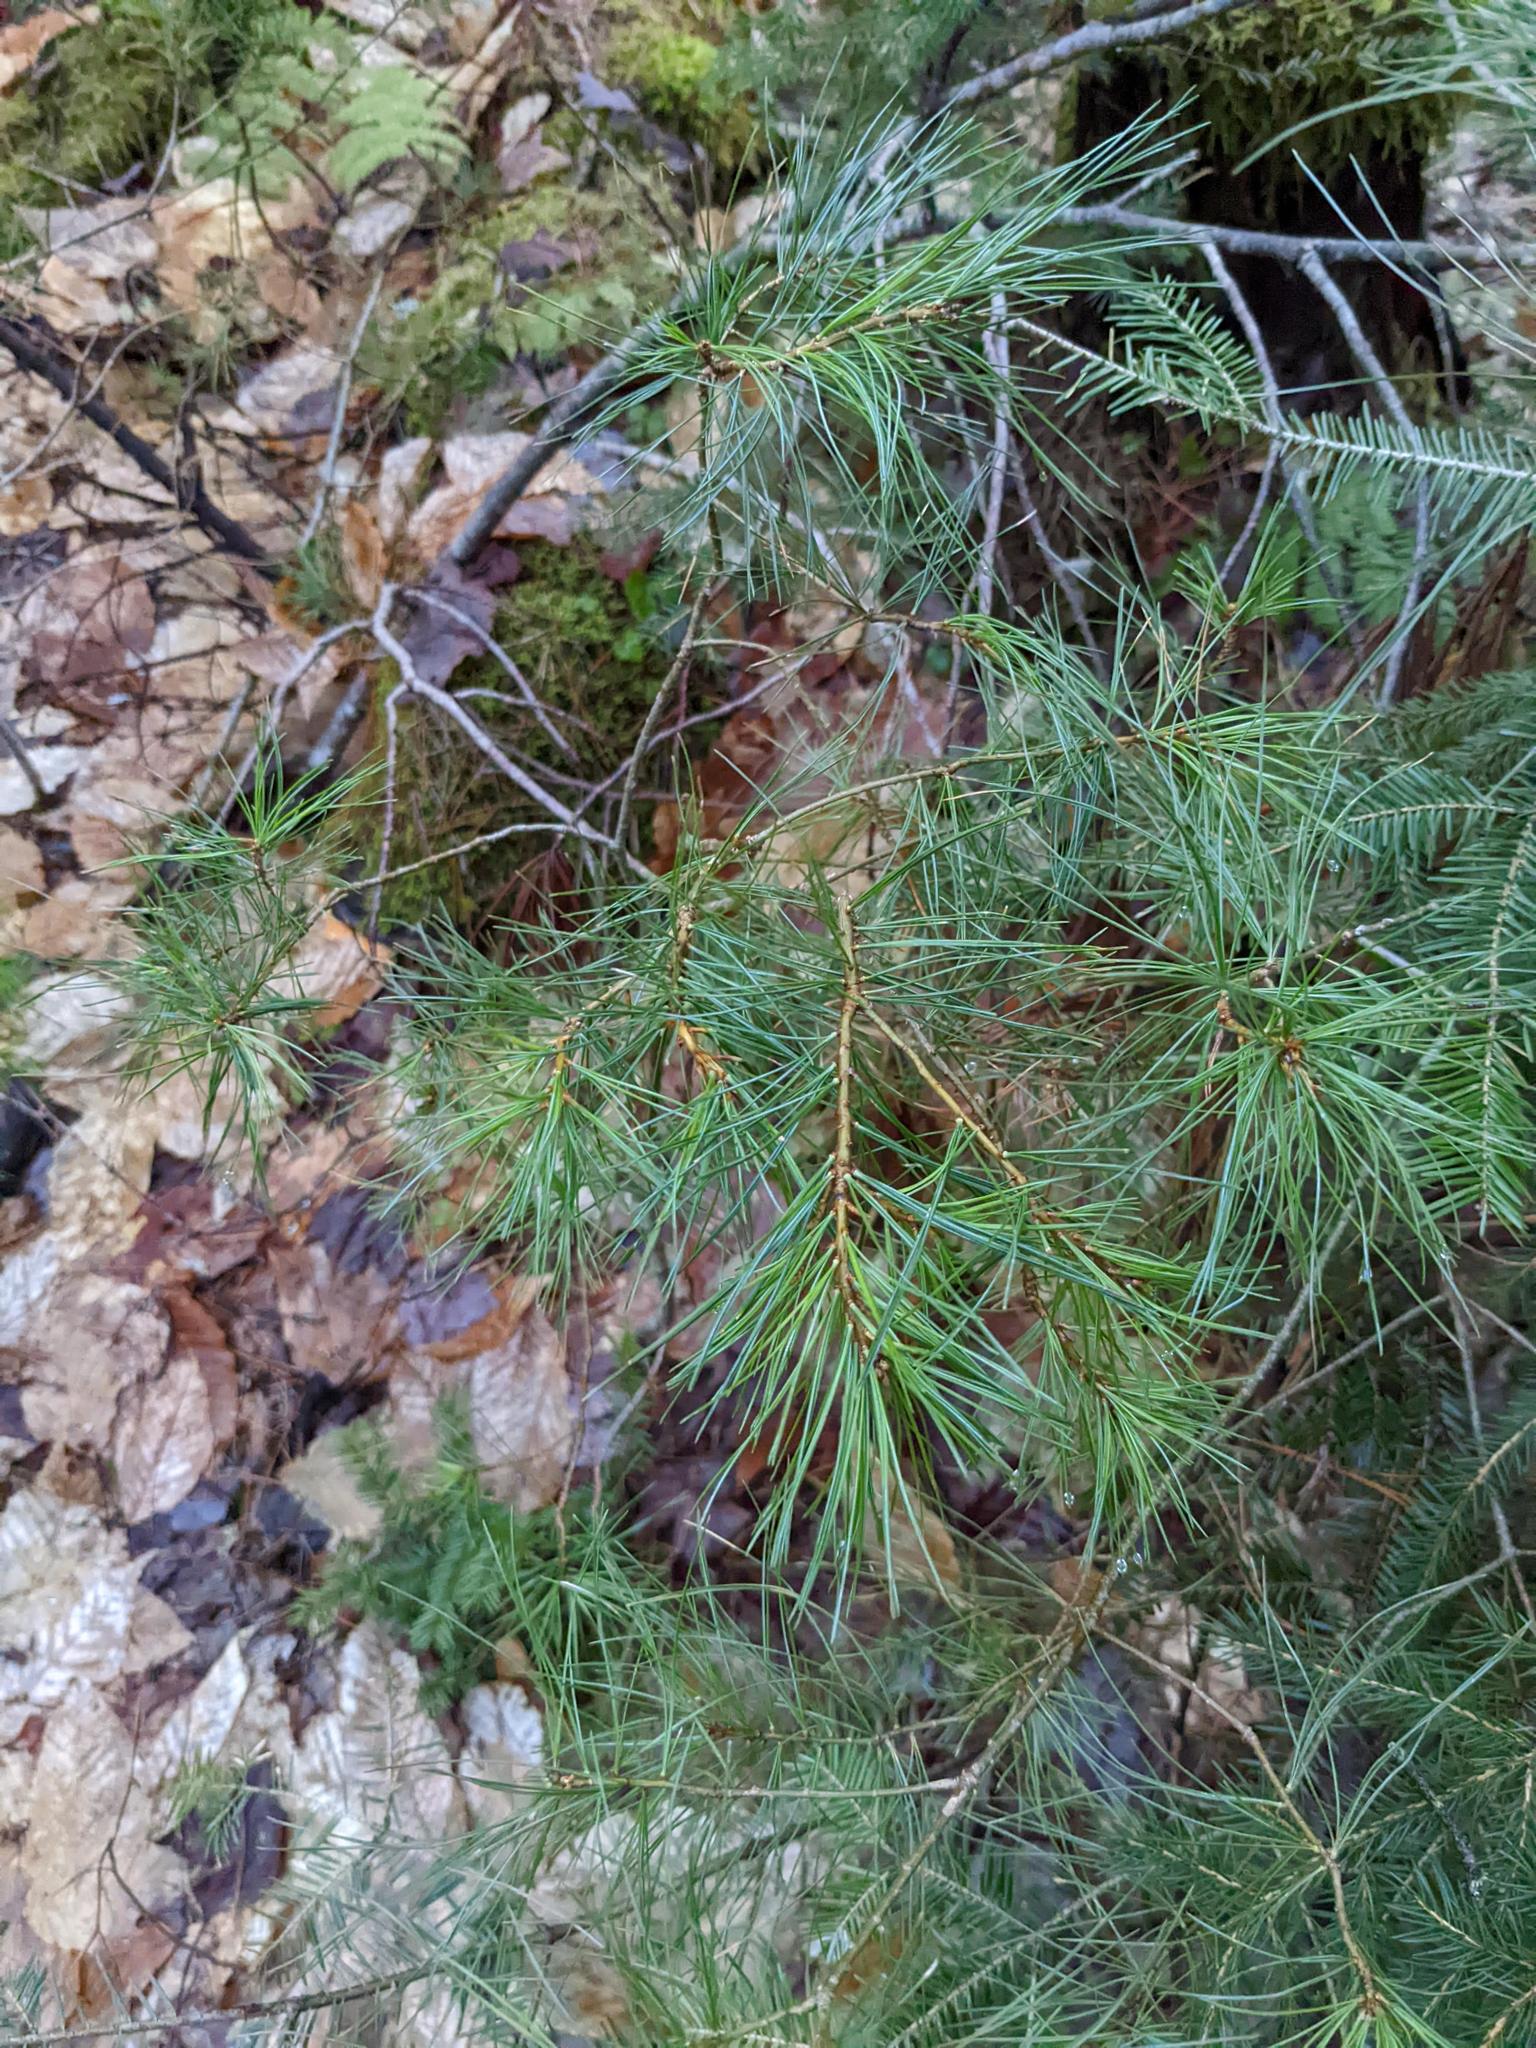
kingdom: Plantae
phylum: Tracheophyta
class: Pinopsida
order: Pinales
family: Pinaceae
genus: Pinus
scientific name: Pinus strobus
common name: Weymouth pine
